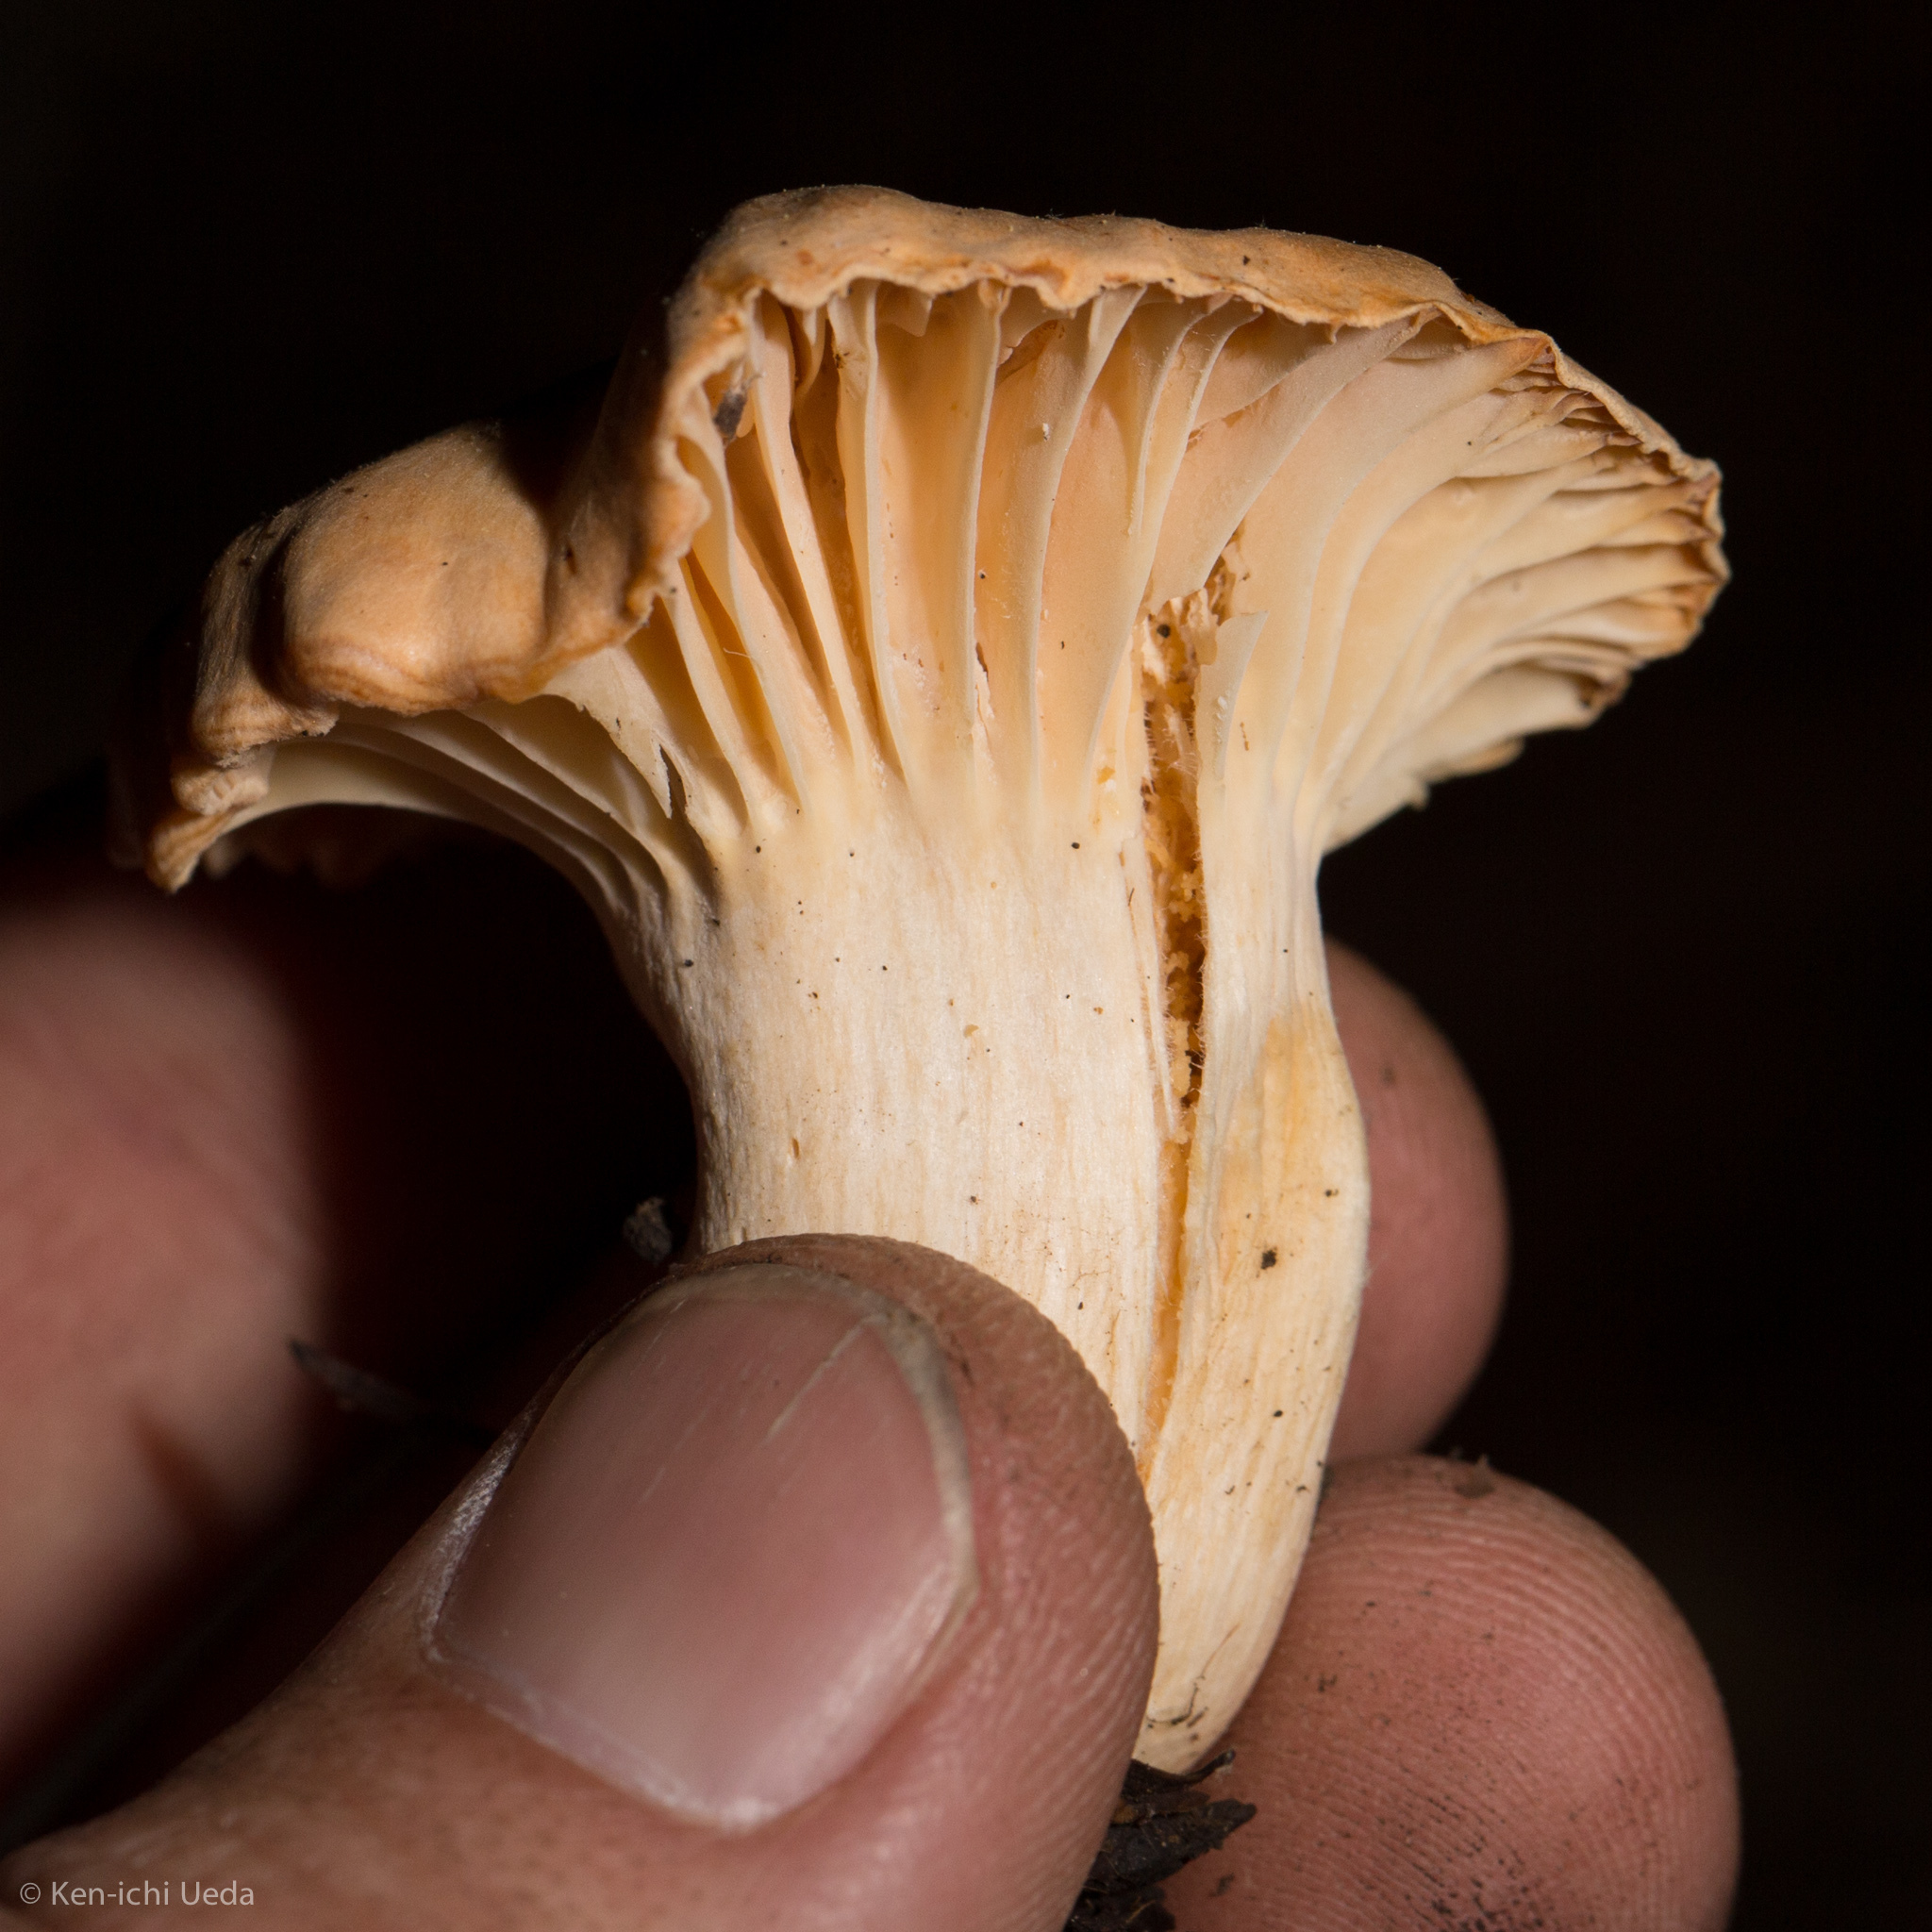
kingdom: Fungi
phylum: Basidiomycota
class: Agaricomycetes
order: Agaricales
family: Hygrophoraceae
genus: Cuphophyllus
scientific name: Cuphophyllus pratensis
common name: Meadow waxcap
